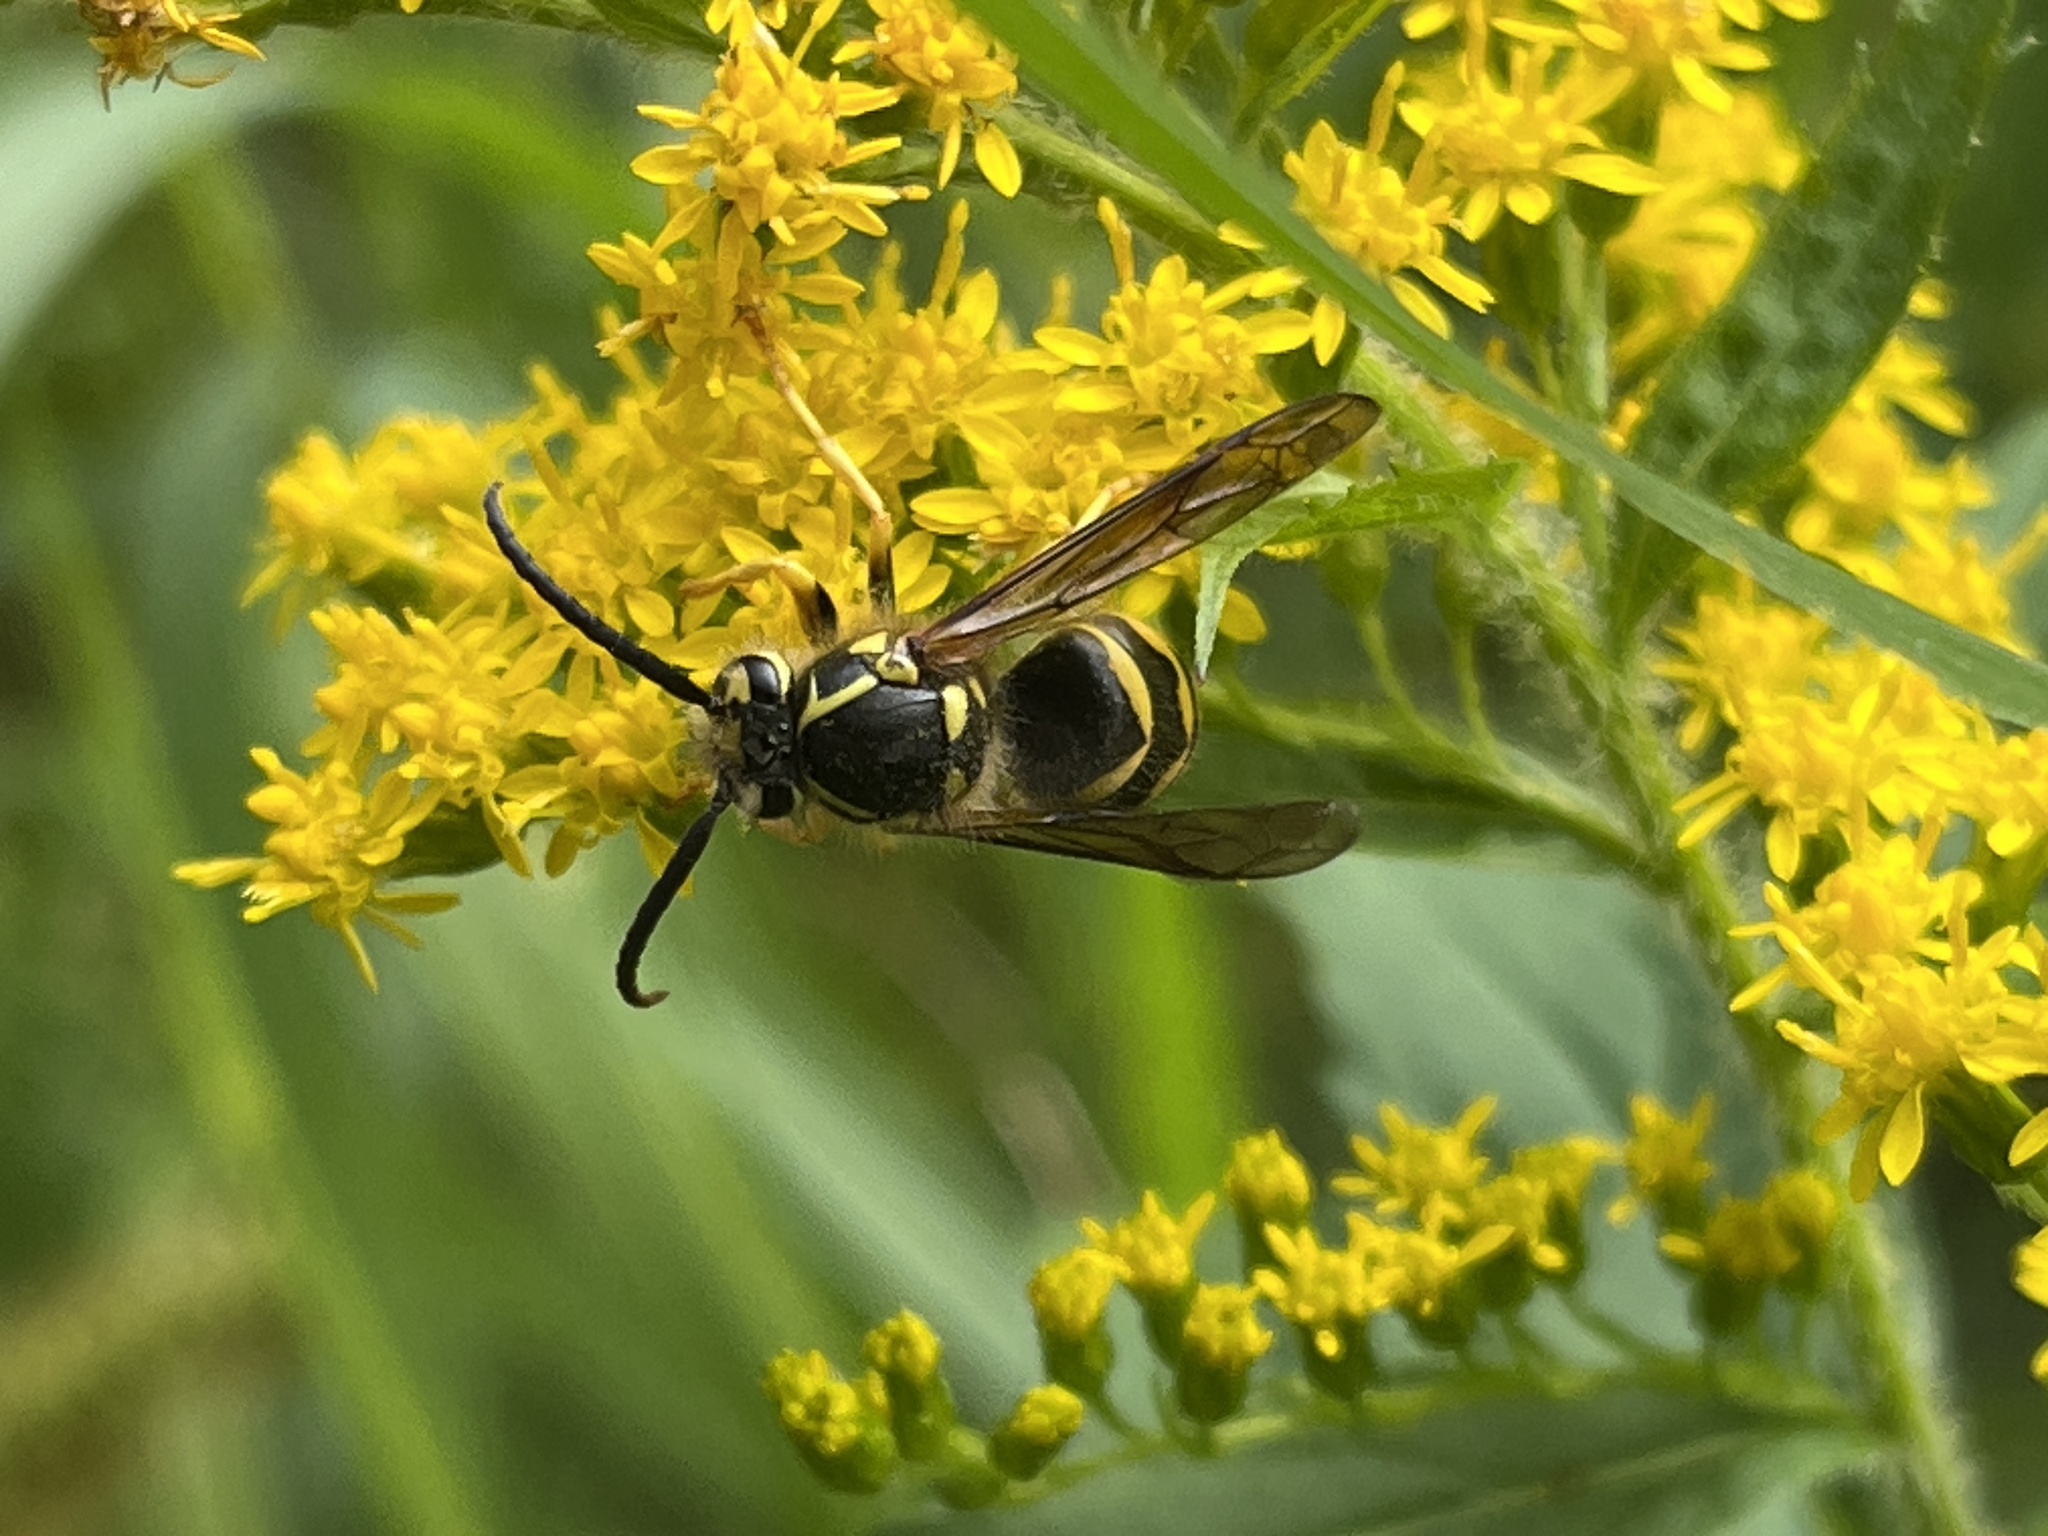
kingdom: Animalia
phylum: Arthropoda
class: Insecta
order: Hymenoptera
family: Vespidae
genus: Dolichovespula
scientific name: Dolichovespula arenaria
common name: Aerial yellowjacket
